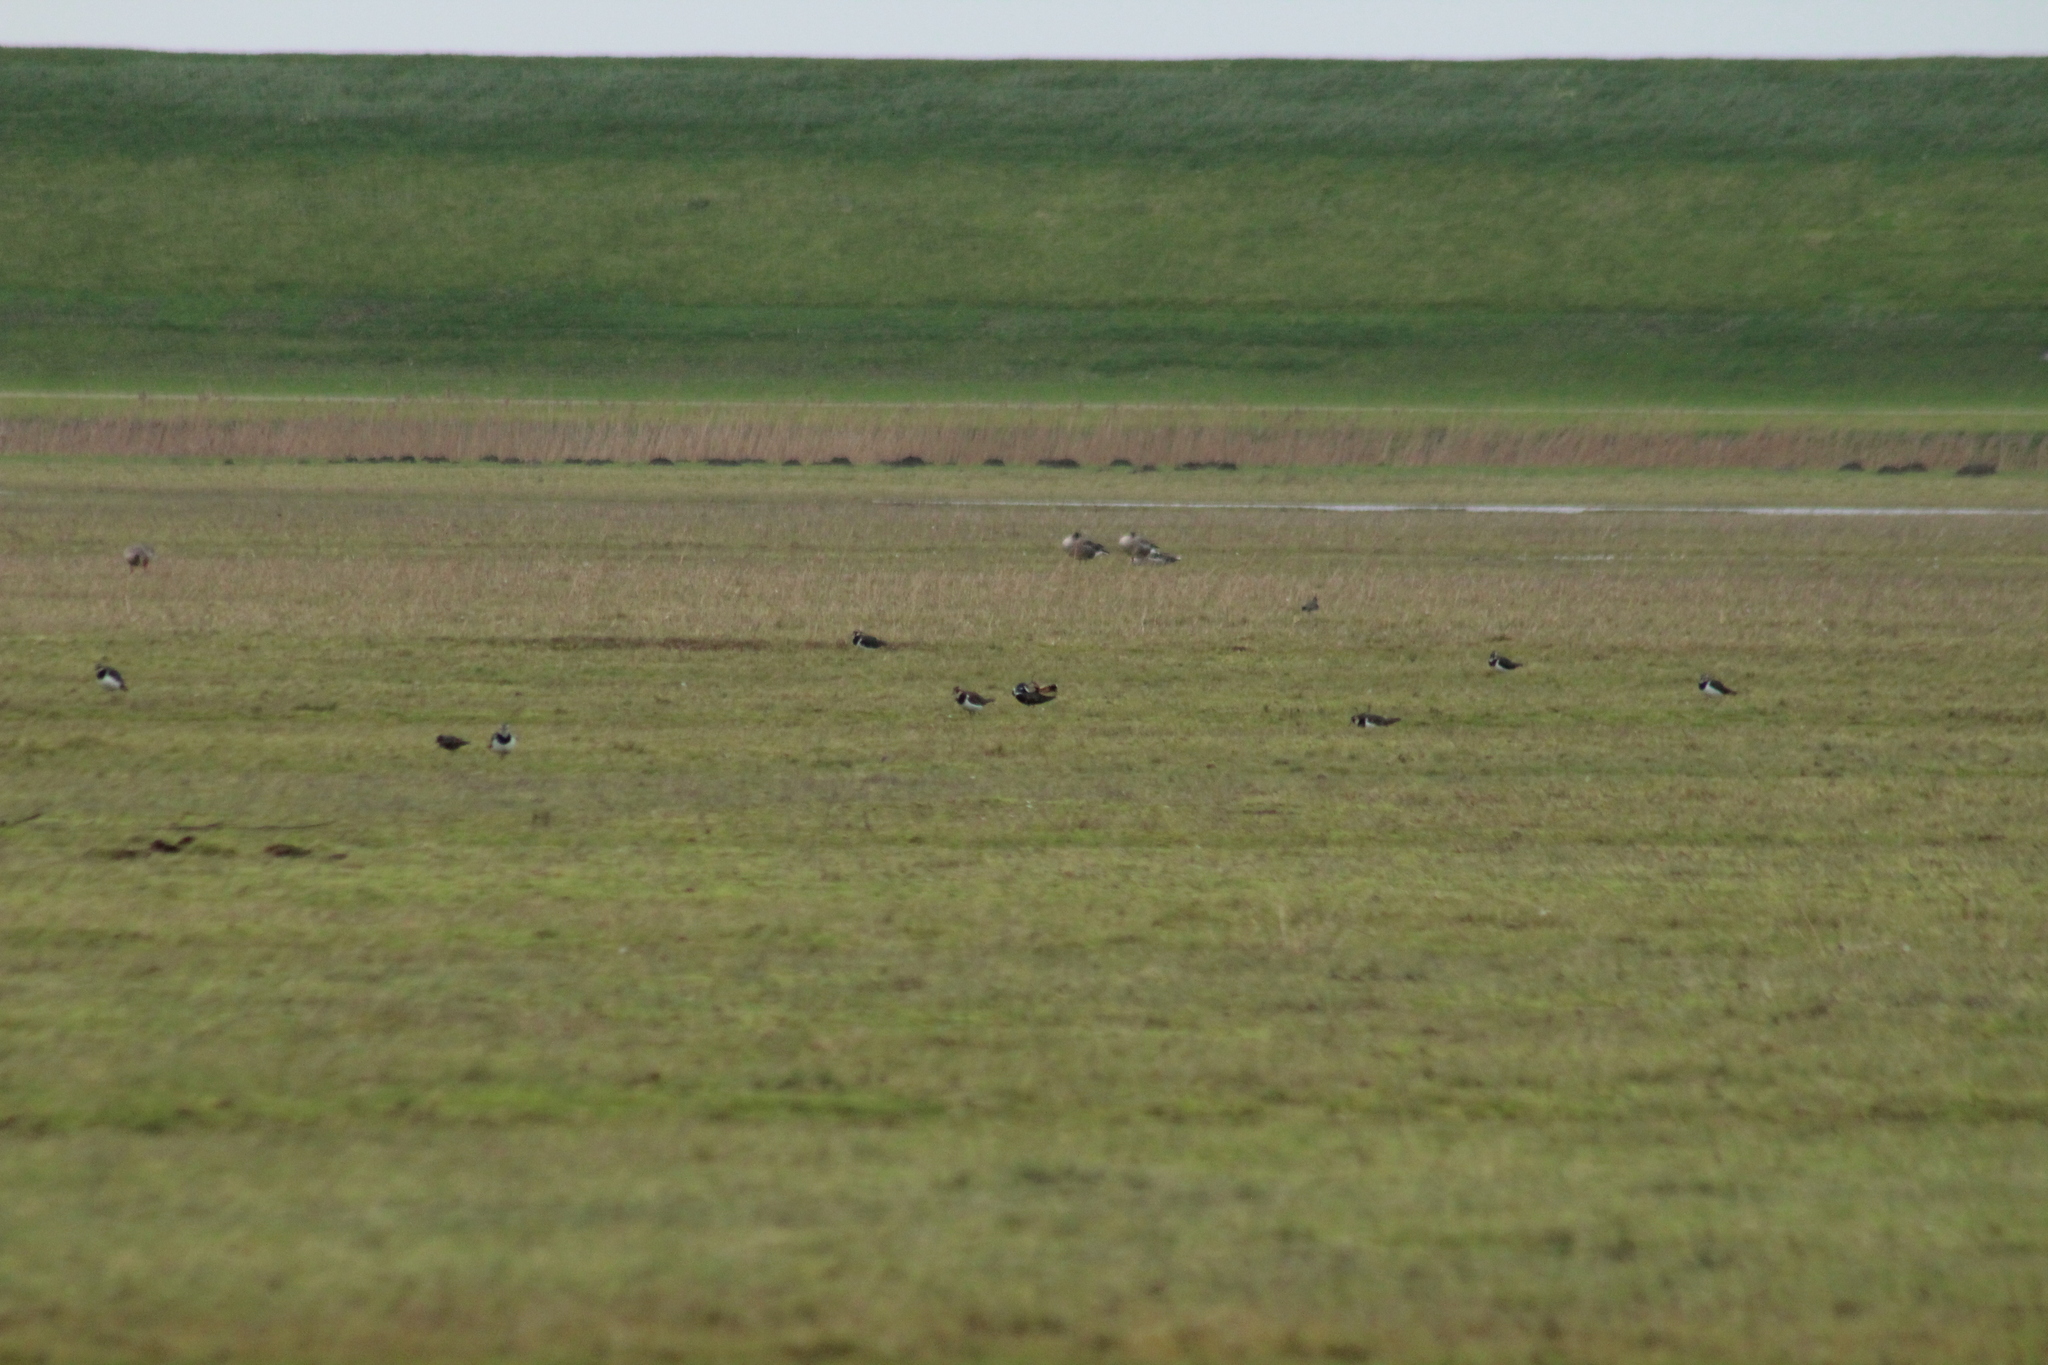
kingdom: Animalia
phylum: Chordata
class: Aves
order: Charadriiformes
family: Charadriidae
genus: Vanellus
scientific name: Vanellus vanellus
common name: Northern lapwing
